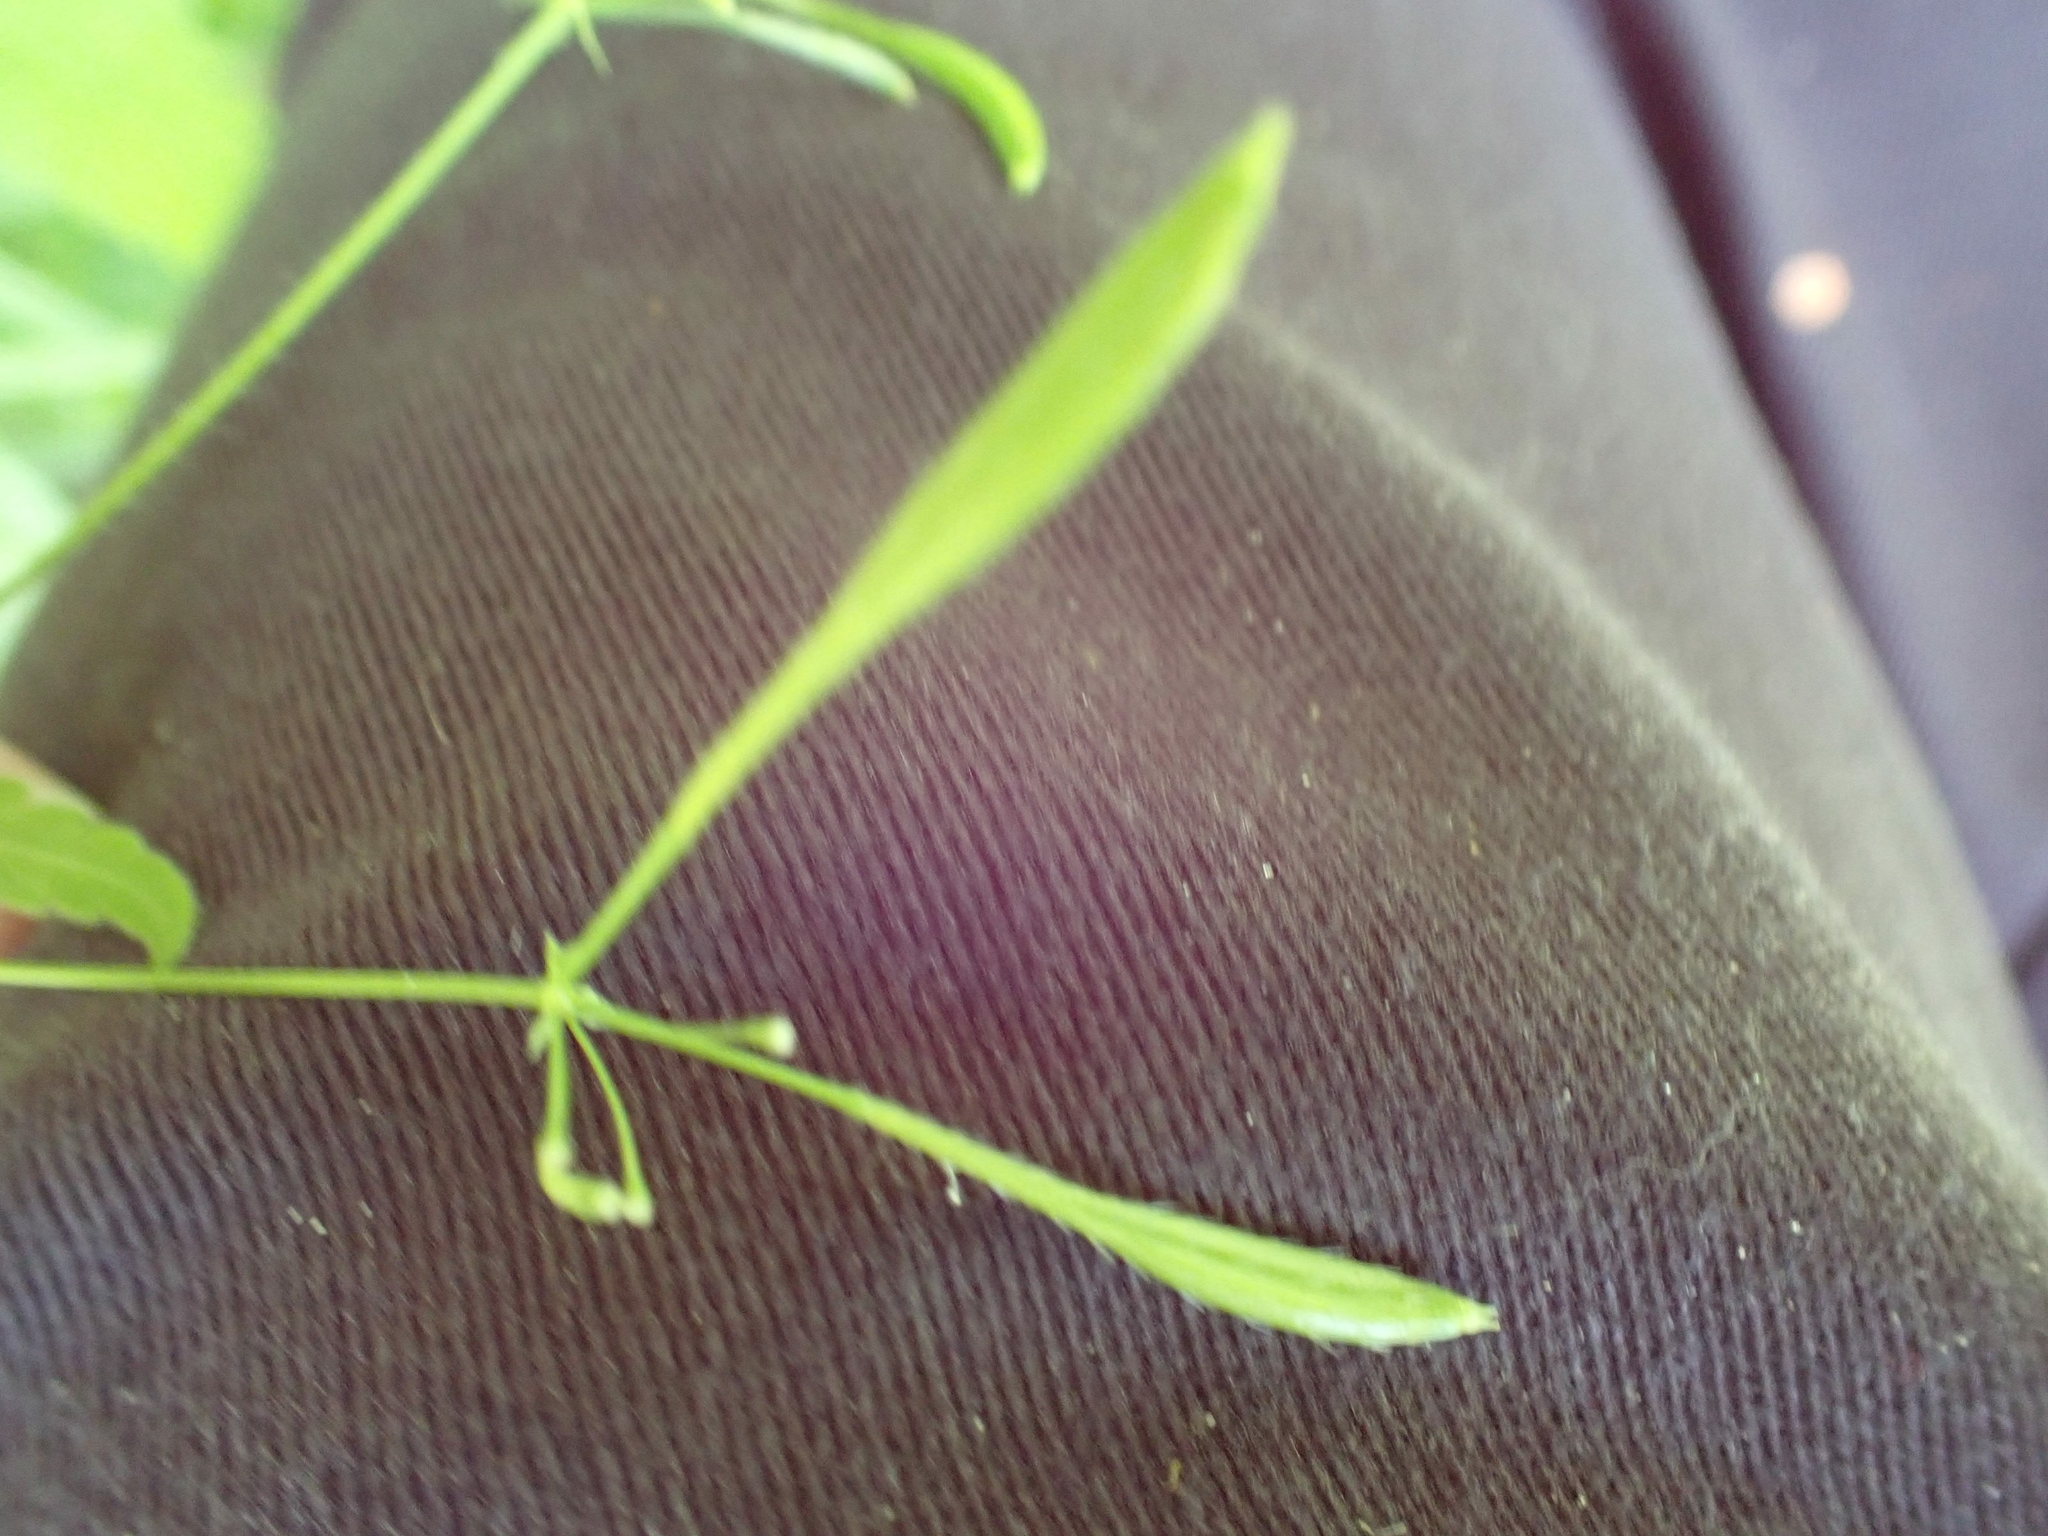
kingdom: Plantae
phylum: Tracheophyta
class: Magnoliopsida
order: Apiales
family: Apiaceae
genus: Osmorhiza
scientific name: Osmorhiza claytonii
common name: Hairy sweet cicely
